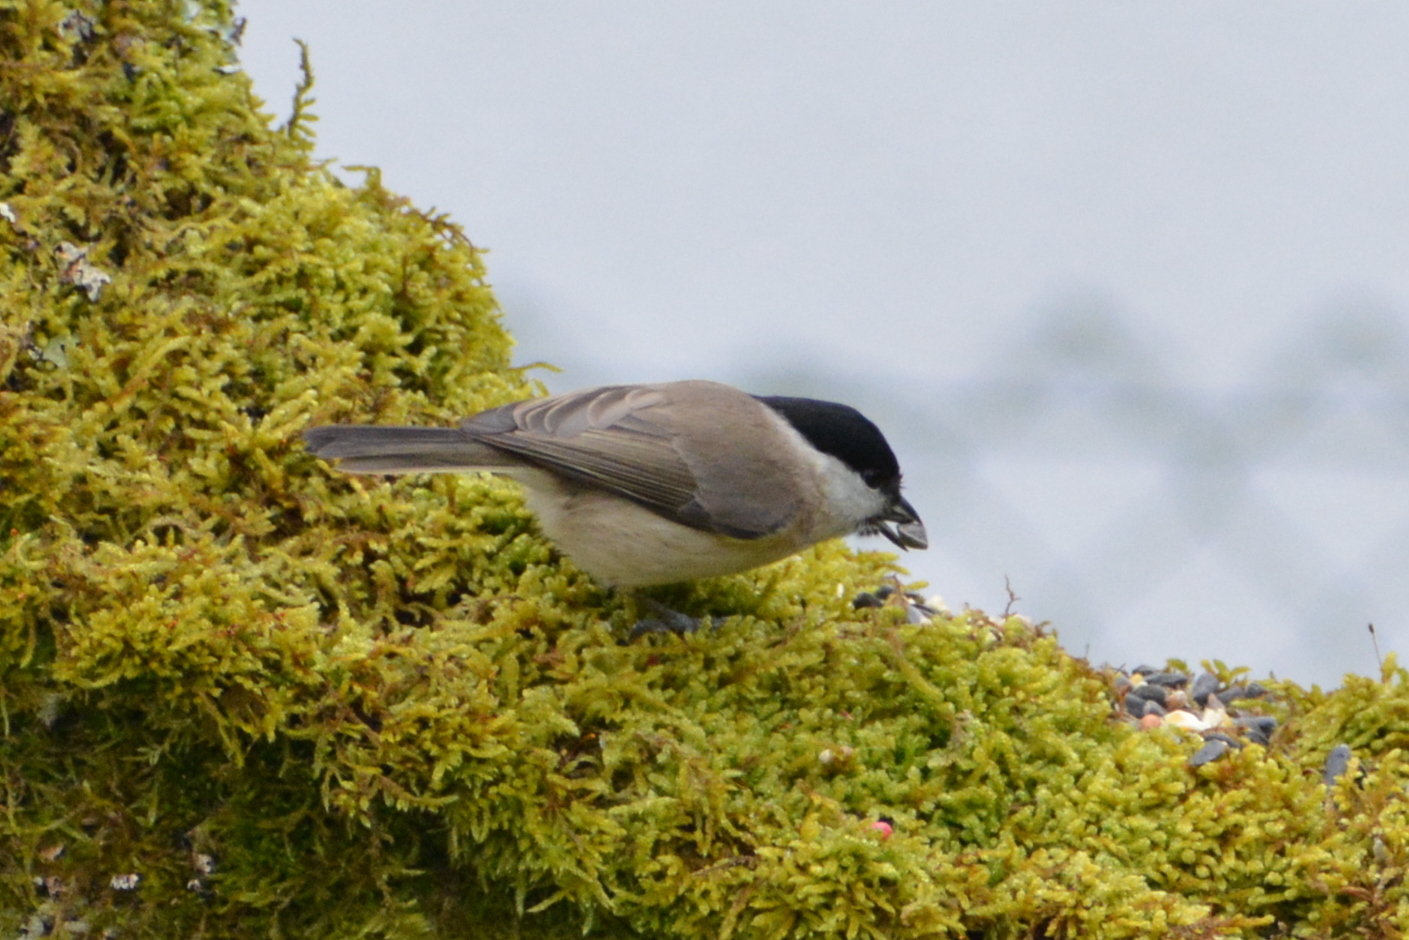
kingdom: Animalia
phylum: Chordata
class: Aves
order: Passeriformes
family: Paridae
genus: Poecile
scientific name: Poecile palustris
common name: Marsh tit
